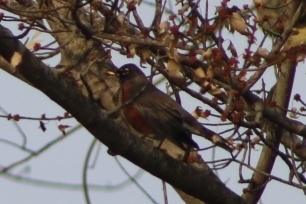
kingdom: Animalia
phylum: Chordata
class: Aves
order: Passeriformes
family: Turdidae
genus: Turdus
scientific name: Turdus migratorius
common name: American robin
